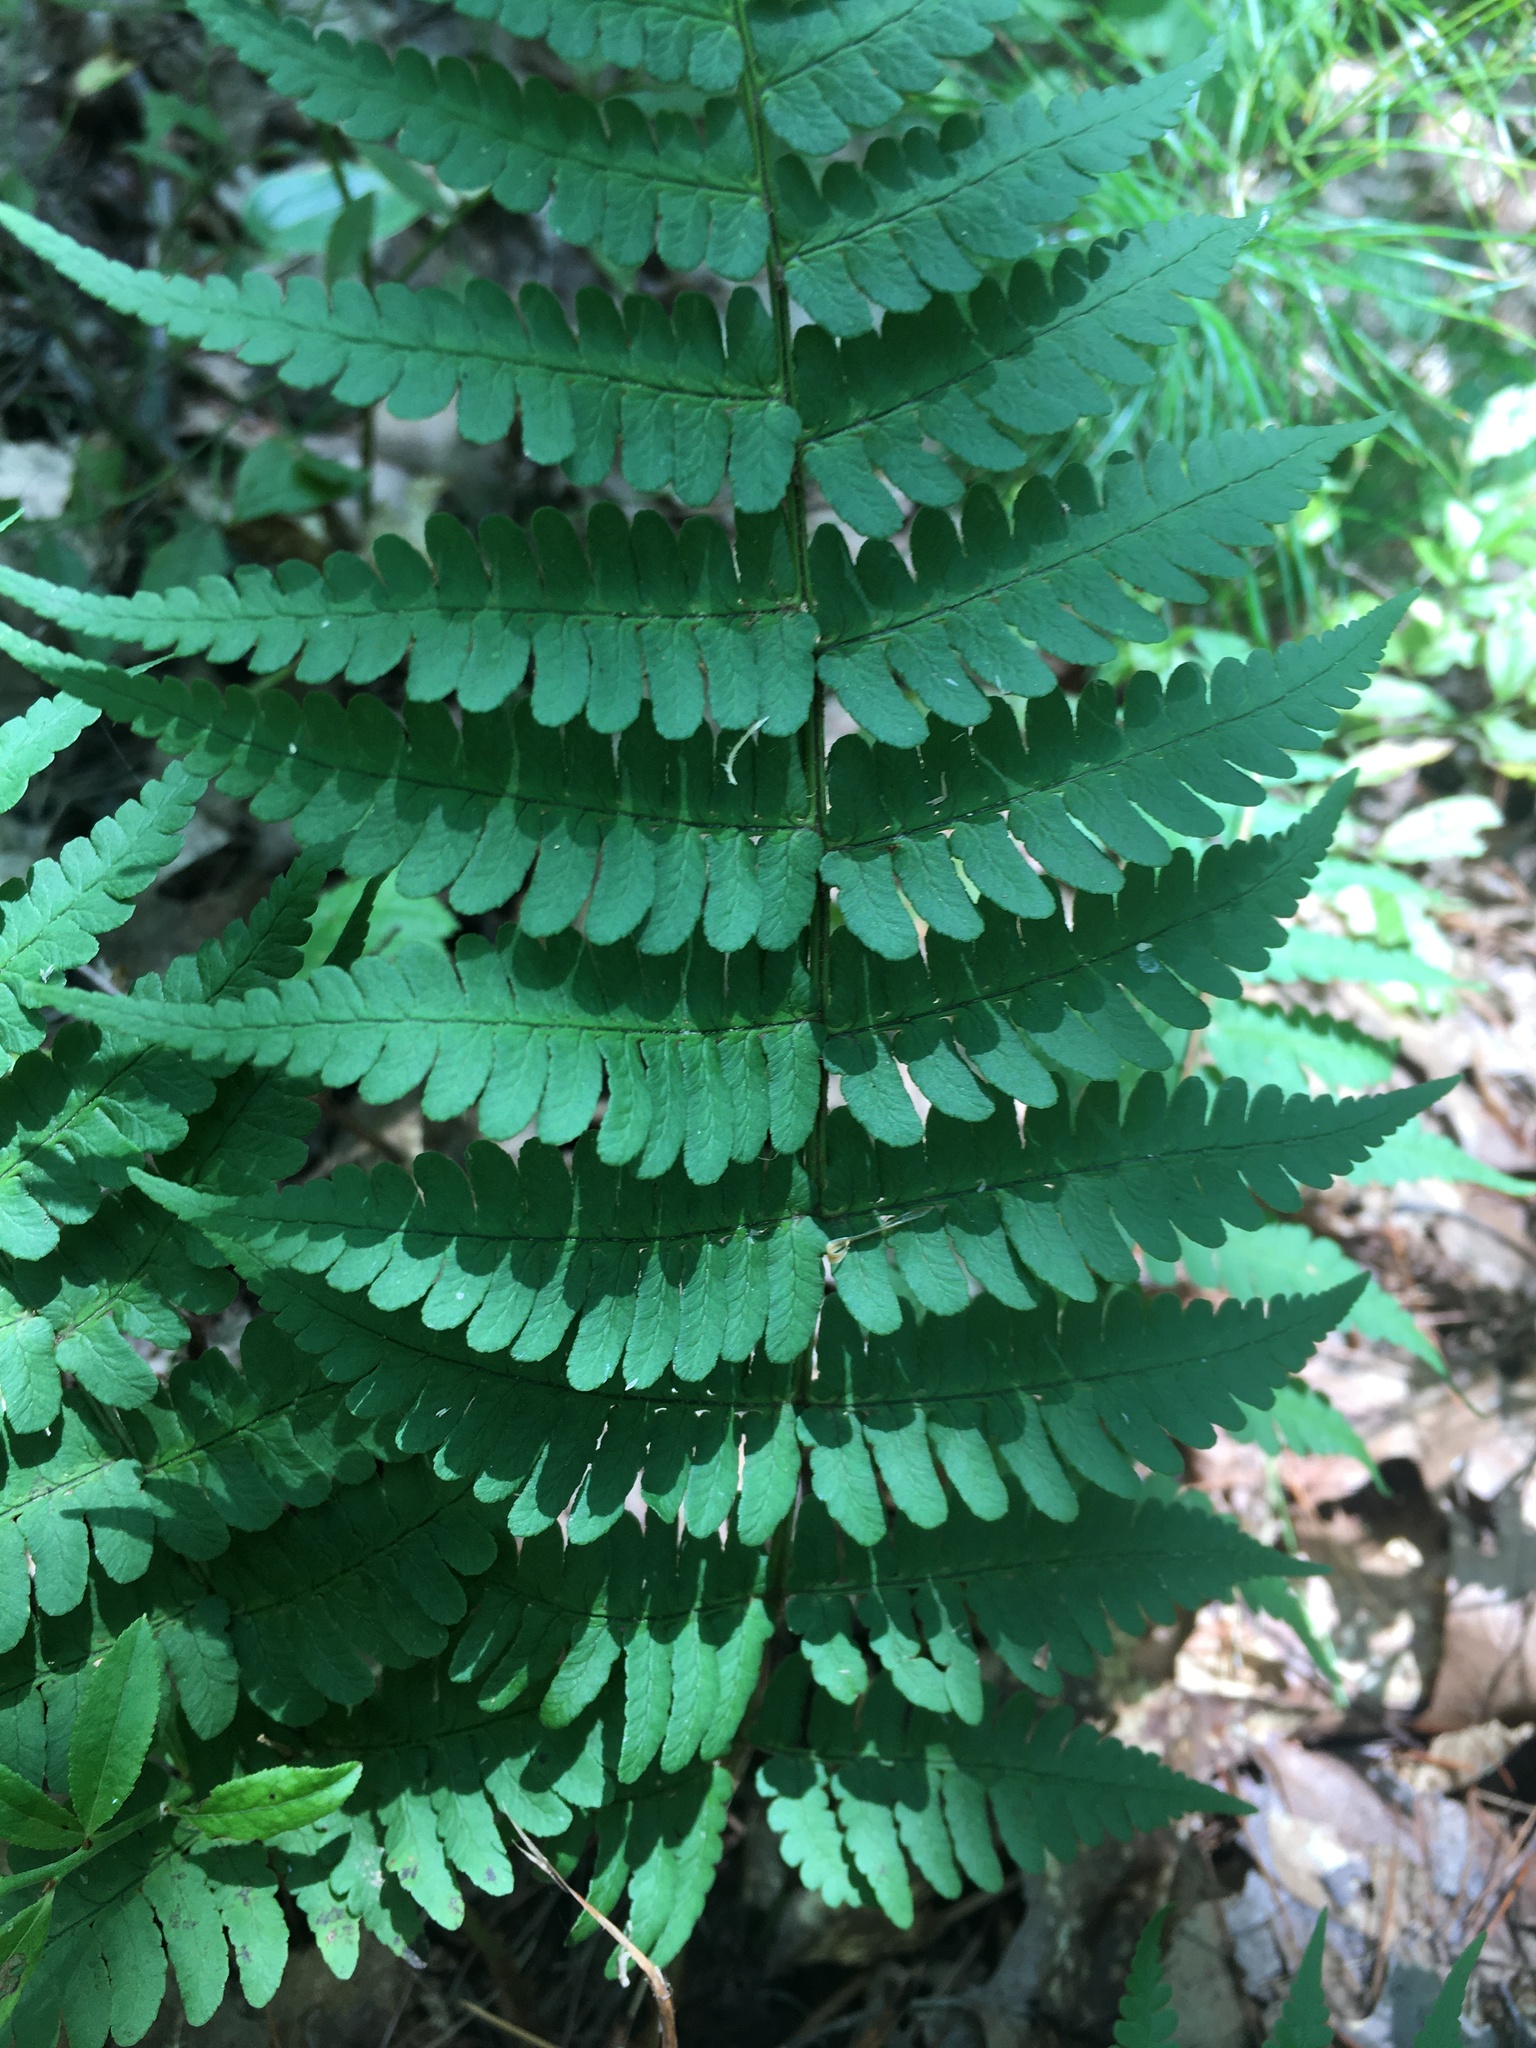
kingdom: Plantae
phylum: Tracheophyta
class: Polypodiopsida
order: Polypodiales
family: Dryopteridaceae
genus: Dryopteris
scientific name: Dryopteris marginalis
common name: Marginal wood fern
